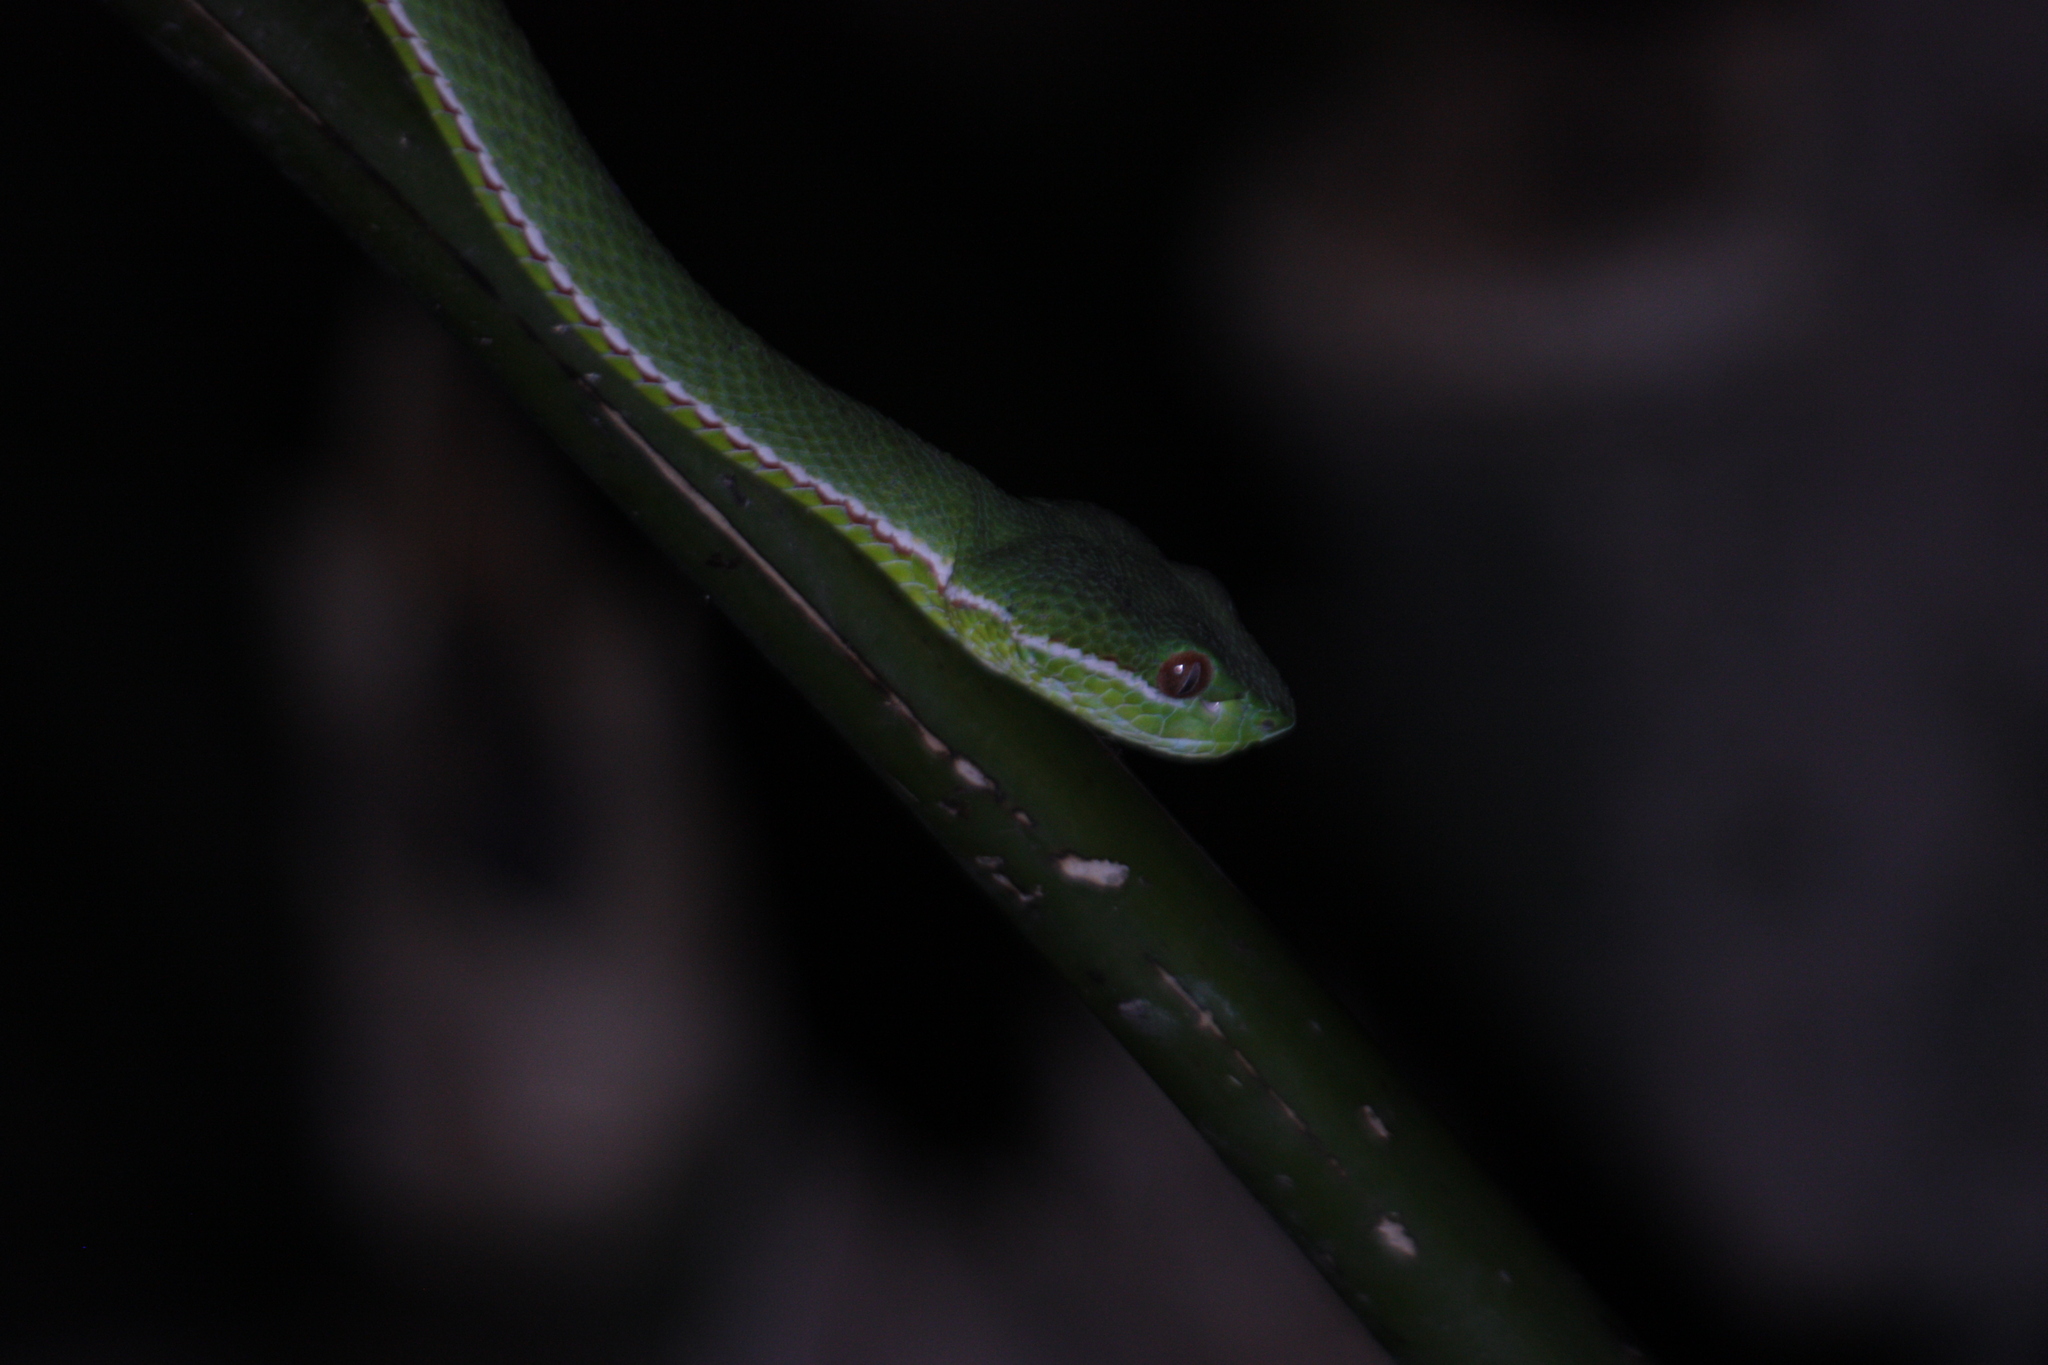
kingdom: Animalia
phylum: Chordata
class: Squamata
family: Viperidae
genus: Trimeresurus
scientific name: Trimeresurus stejnegeri
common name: Chen’s bamboo pit viper
